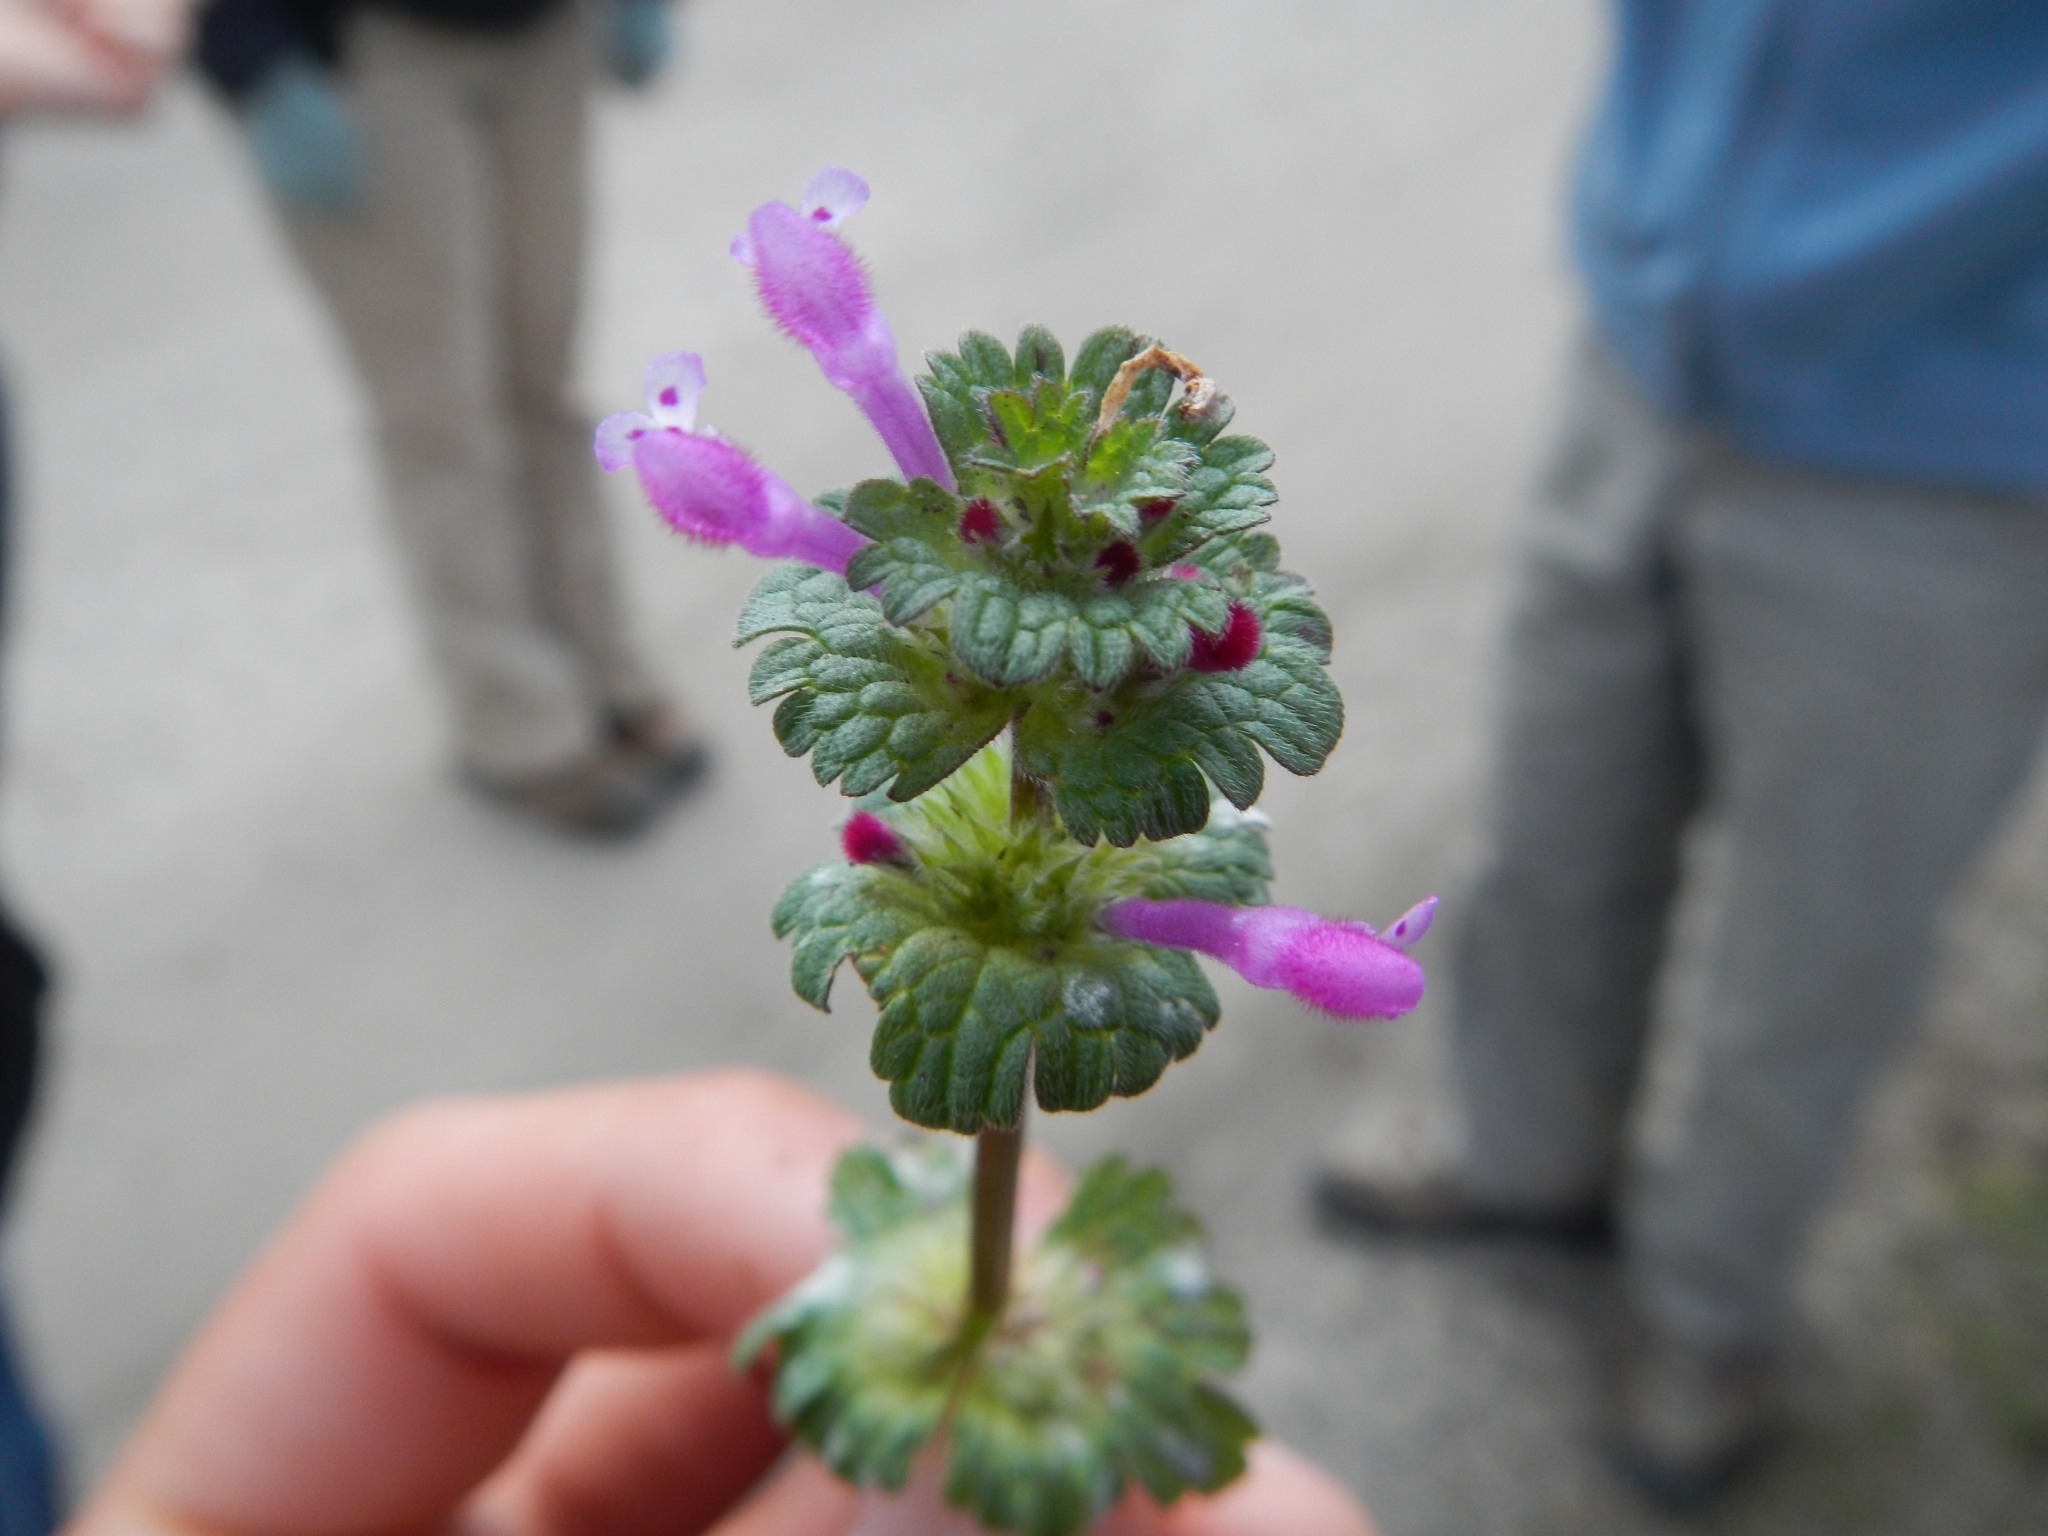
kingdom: Plantae
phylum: Tracheophyta
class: Magnoliopsida
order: Lamiales
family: Lamiaceae
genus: Lamium
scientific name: Lamium amplexicaule
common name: Henbit dead-nettle
